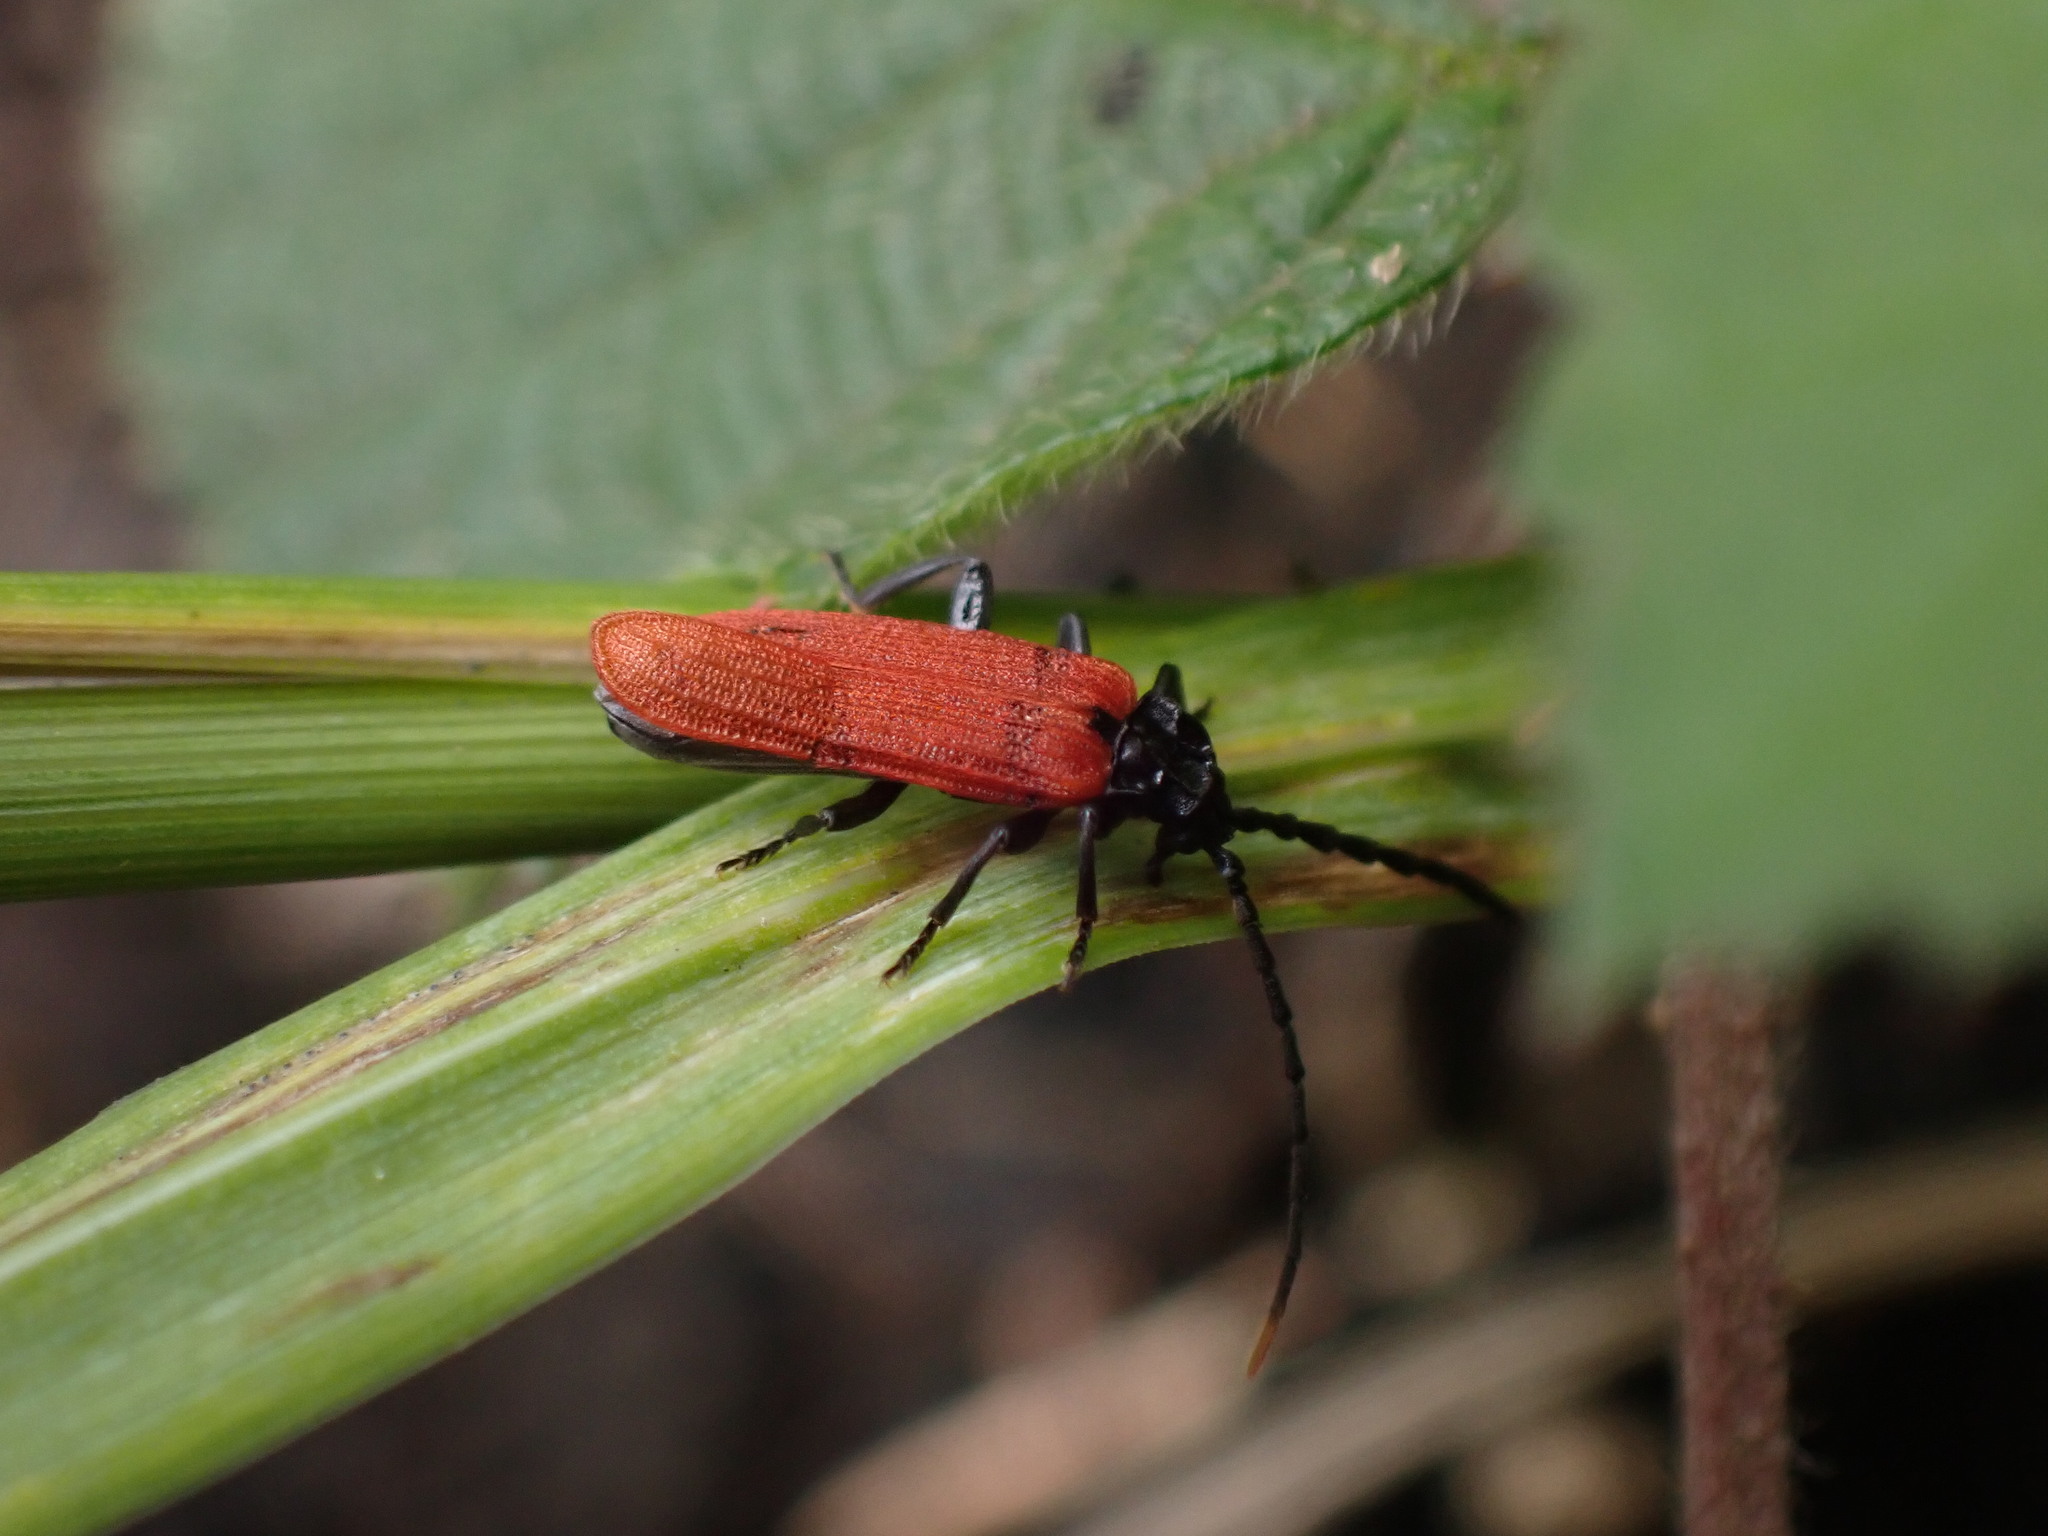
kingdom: Animalia
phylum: Arthropoda
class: Insecta
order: Coleoptera
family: Lycidae
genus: Platycis
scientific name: Platycis minutus
